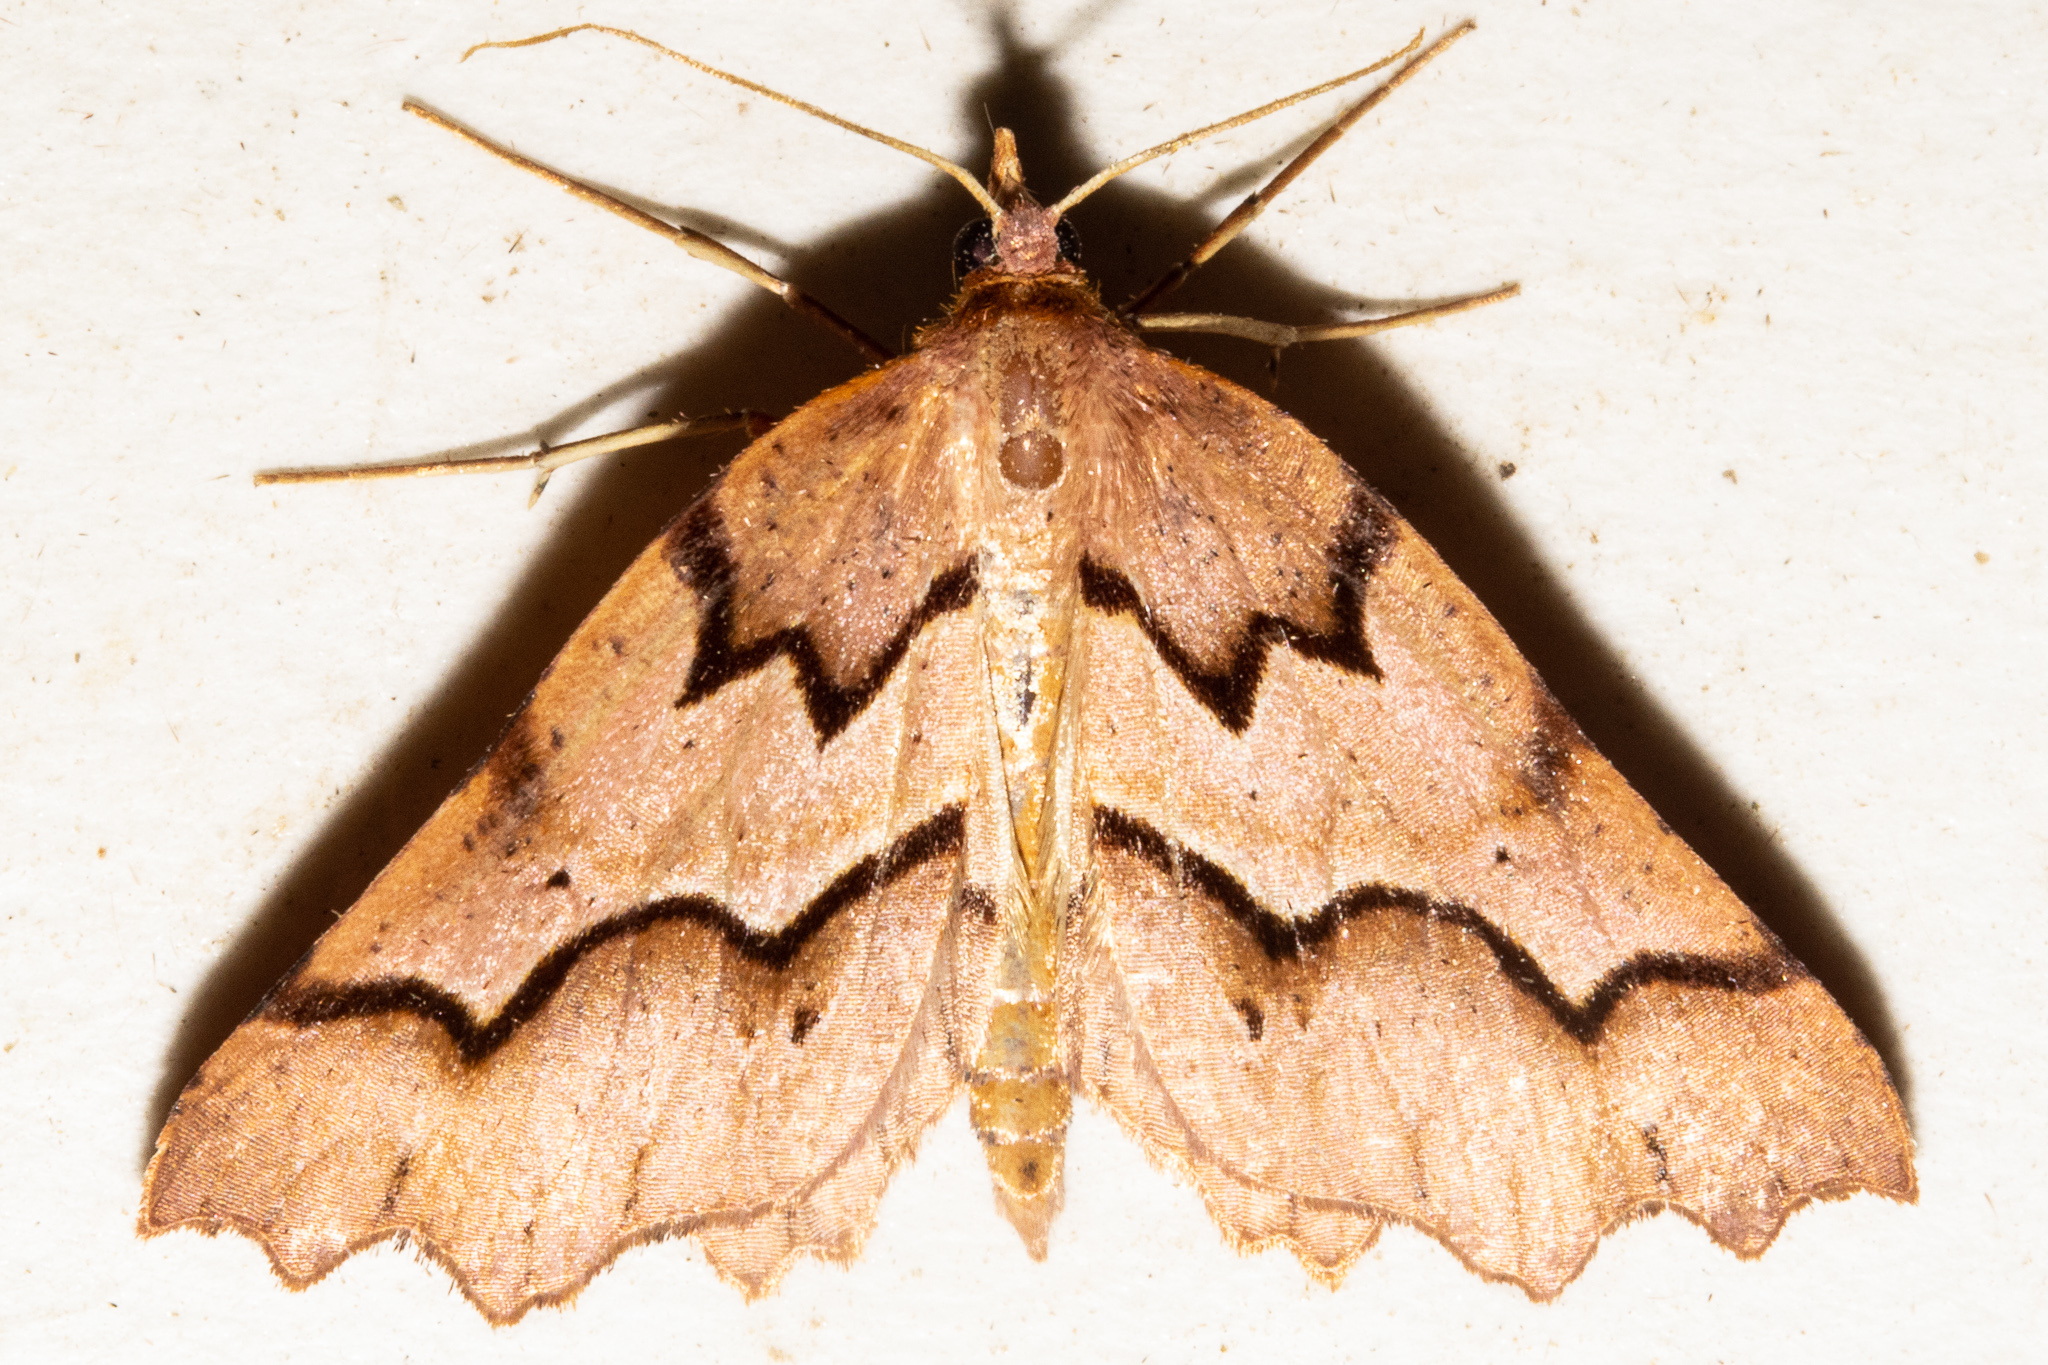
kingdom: Animalia
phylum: Arthropoda
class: Insecta
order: Lepidoptera
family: Geometridae
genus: Ischalis
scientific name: Ischalis fortinata
